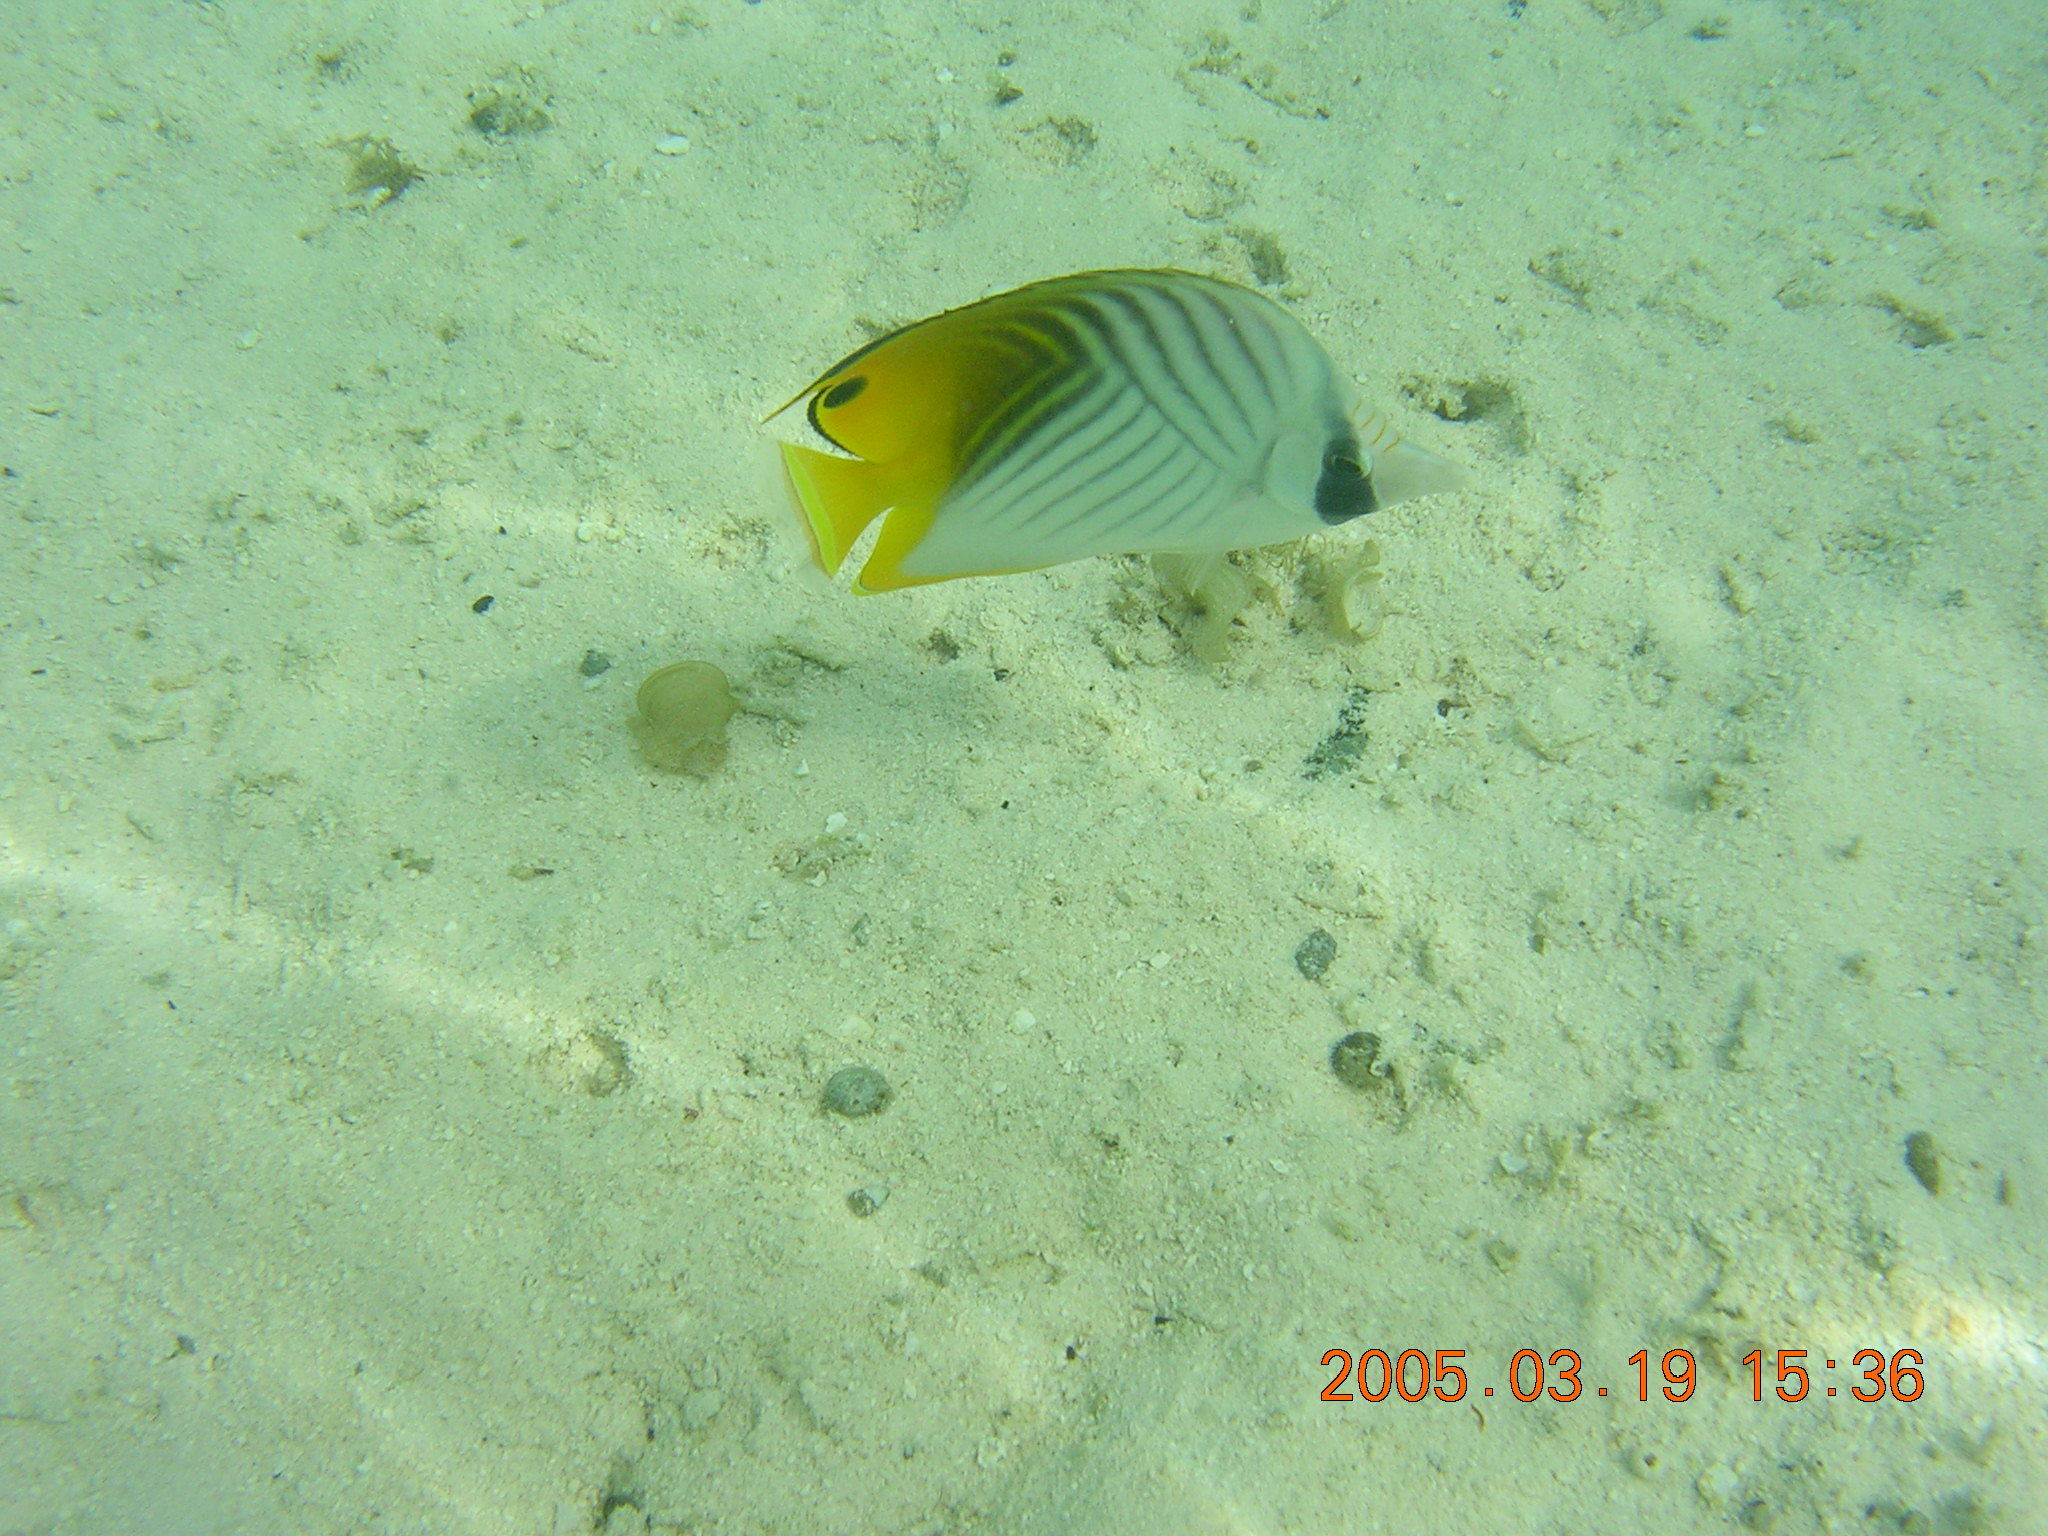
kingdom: Animalia
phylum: Chordata
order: Perciformes
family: Chaetodontidae
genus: Chaetodon
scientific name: Chaetodon auriga
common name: Threadfin butterflyfish
